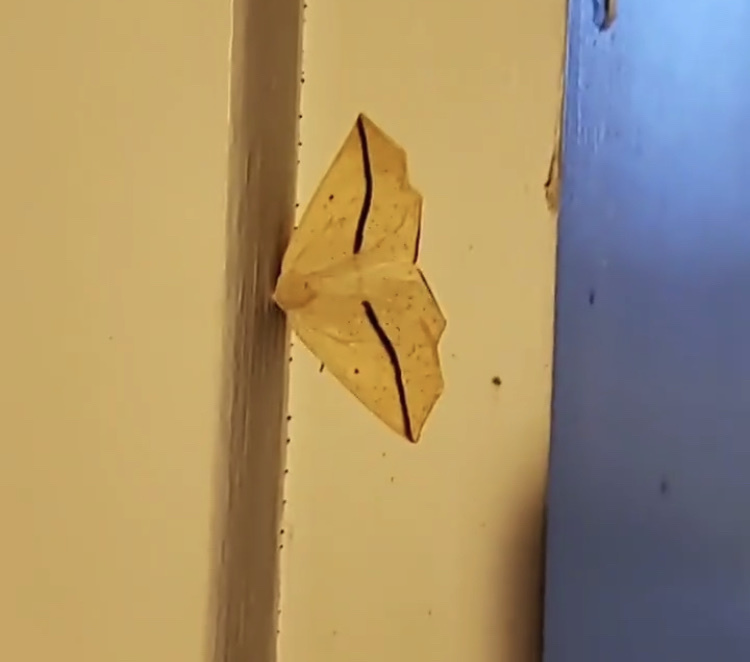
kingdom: Animalia
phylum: Arthropoda
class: Insecta
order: Lepidoptera
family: Geometridae
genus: Tetracis
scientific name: Tetracis crocallata
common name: Yellow slant-line
